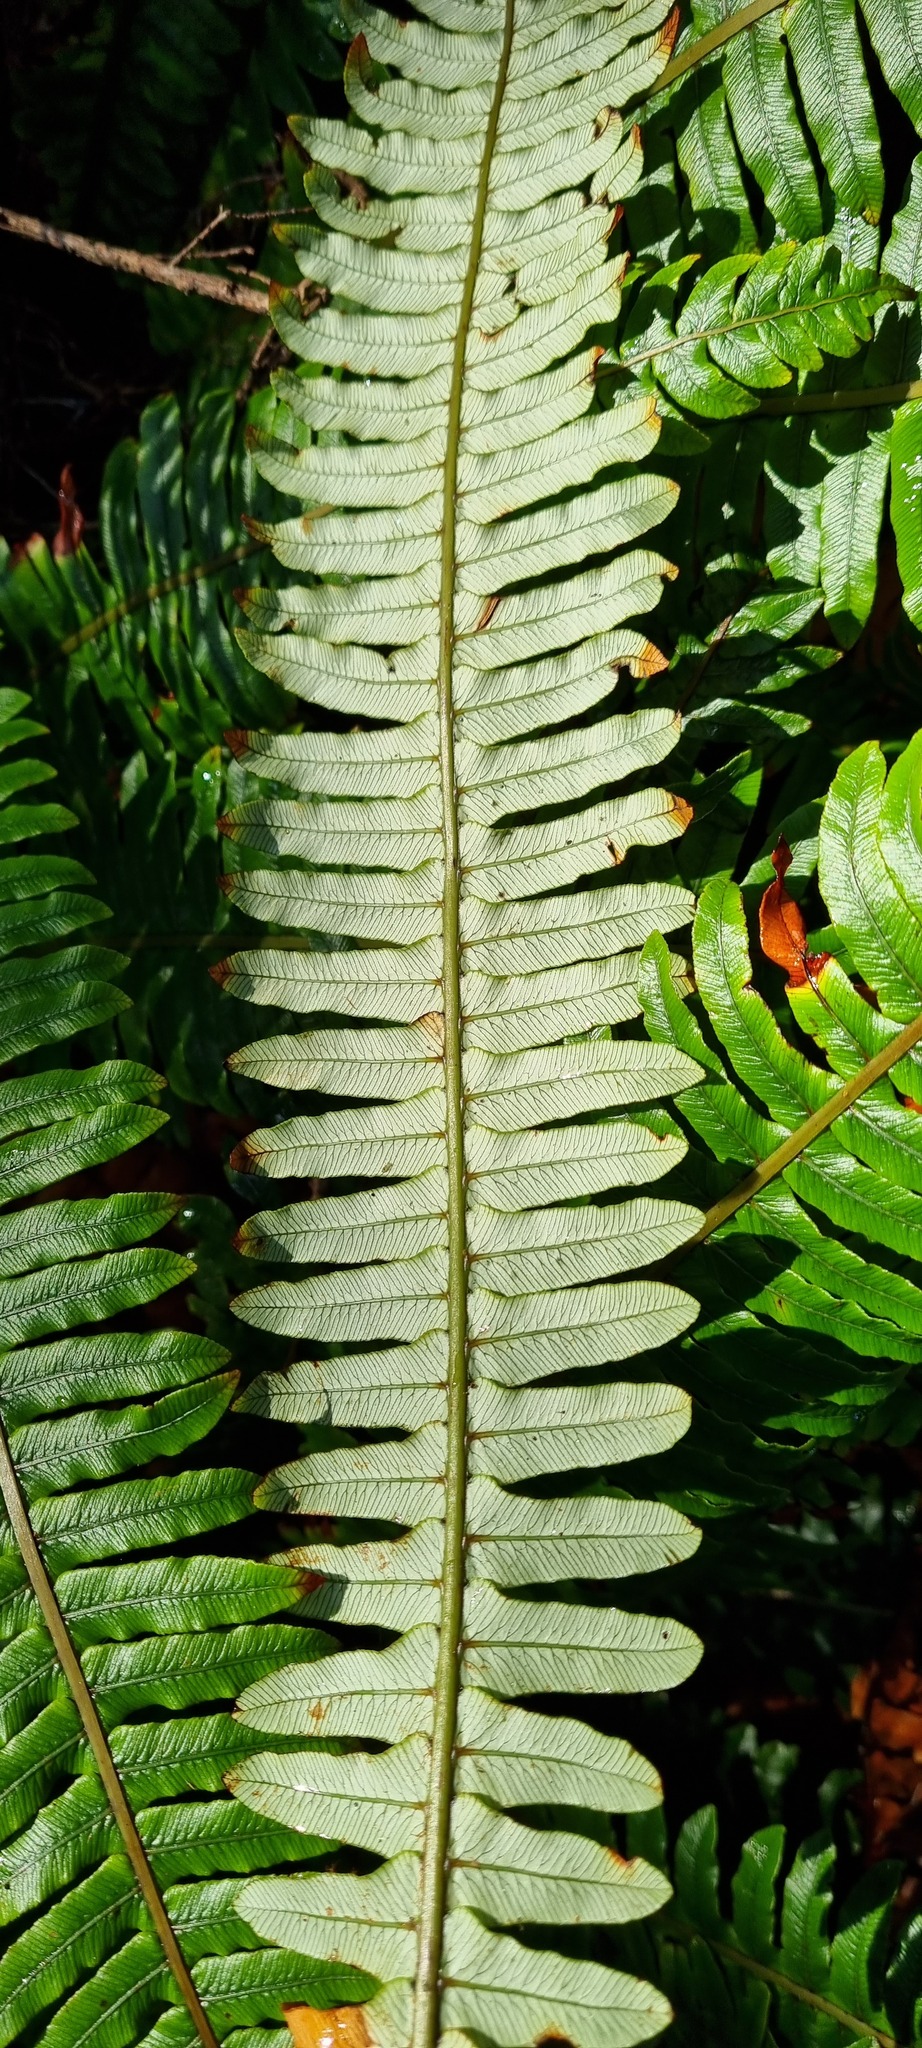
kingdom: Plantae
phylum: Tracheophyta
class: Polypodiopsida
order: Polypodiales
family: Blechnaceae
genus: Lomaria
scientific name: Lomaria discolor
